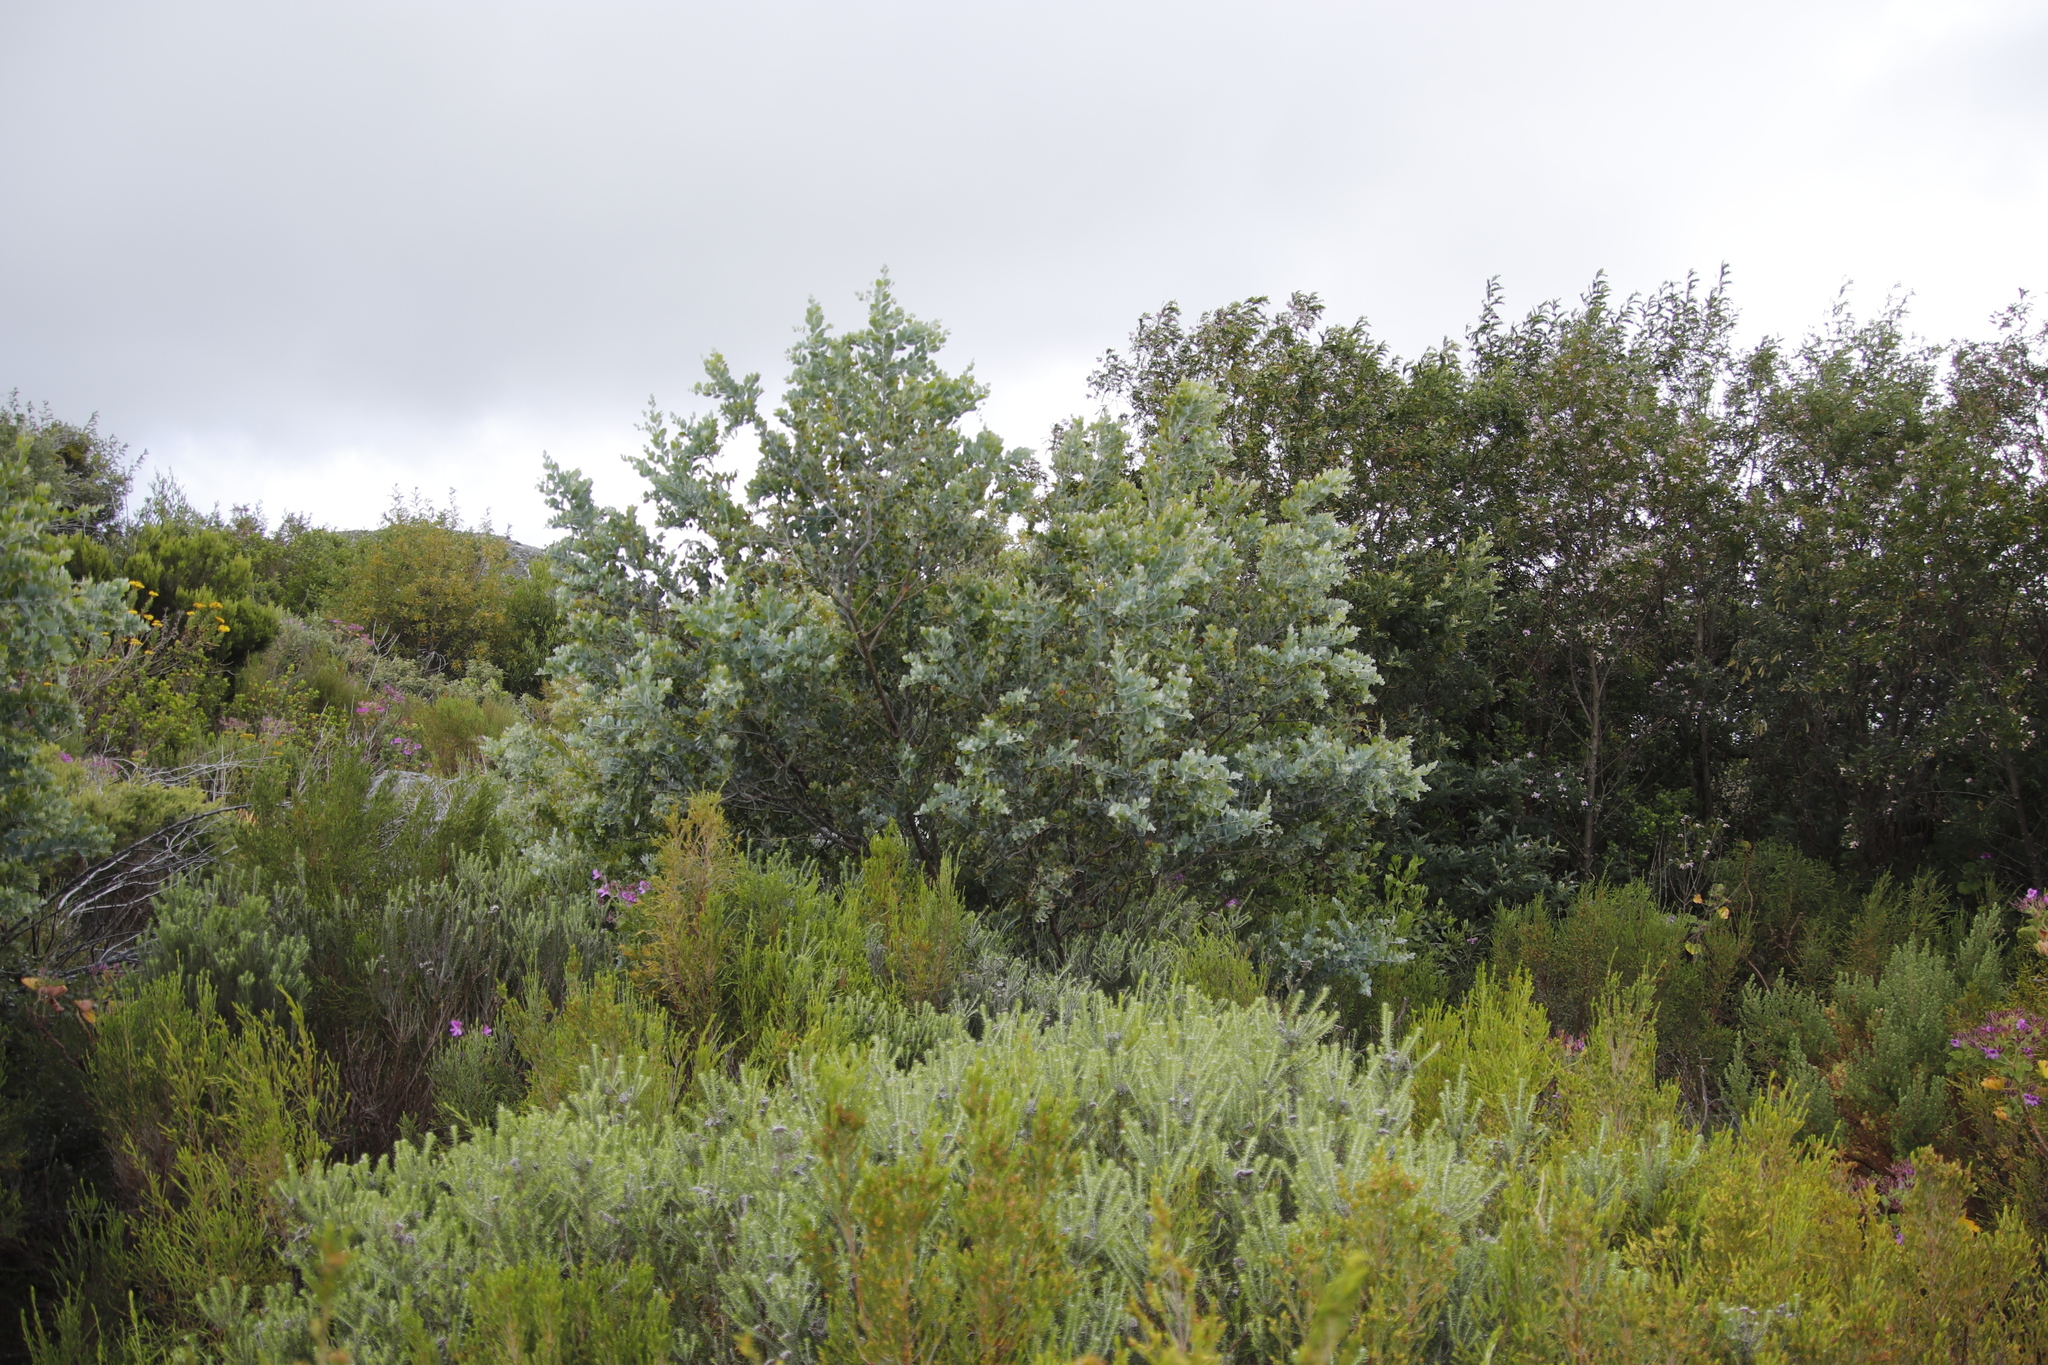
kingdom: Plantae
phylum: Tracheophyta
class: Magnoliopsida
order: Fabales
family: Fabaceae
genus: Acacia
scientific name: Acacia podalyriifolia
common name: Pearl wattle
